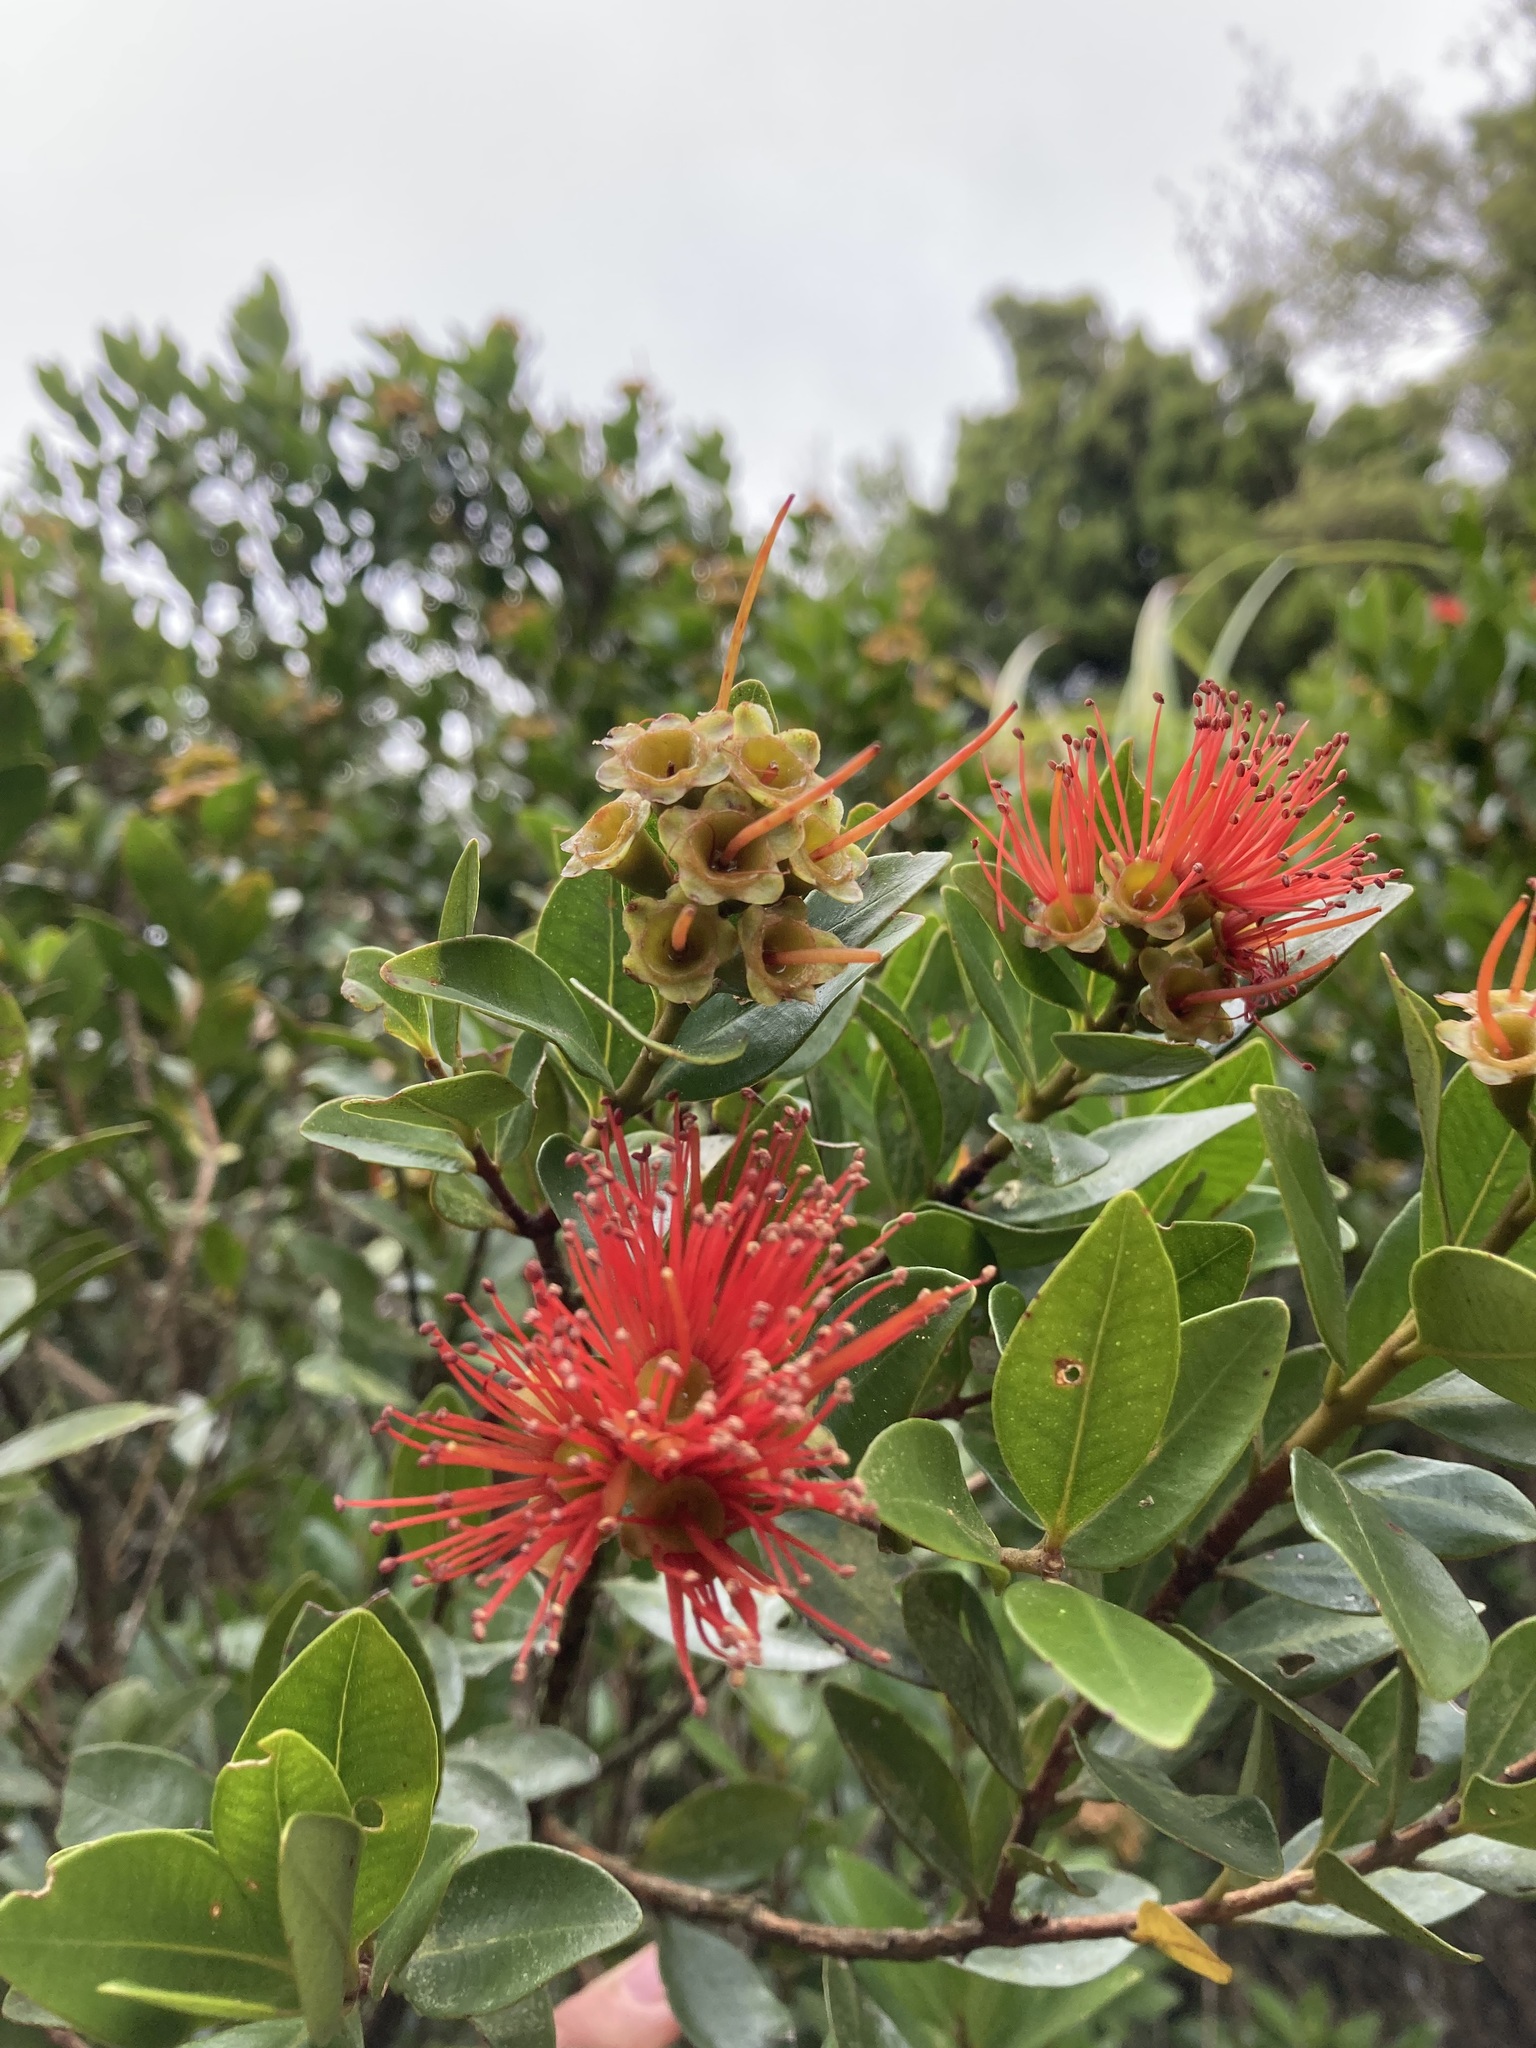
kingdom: Plantae
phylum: Tracheophyta
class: Magnoliopsida
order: Myrtales
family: Myrtaceae
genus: Metrosideros
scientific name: Metrosideros fulgens
